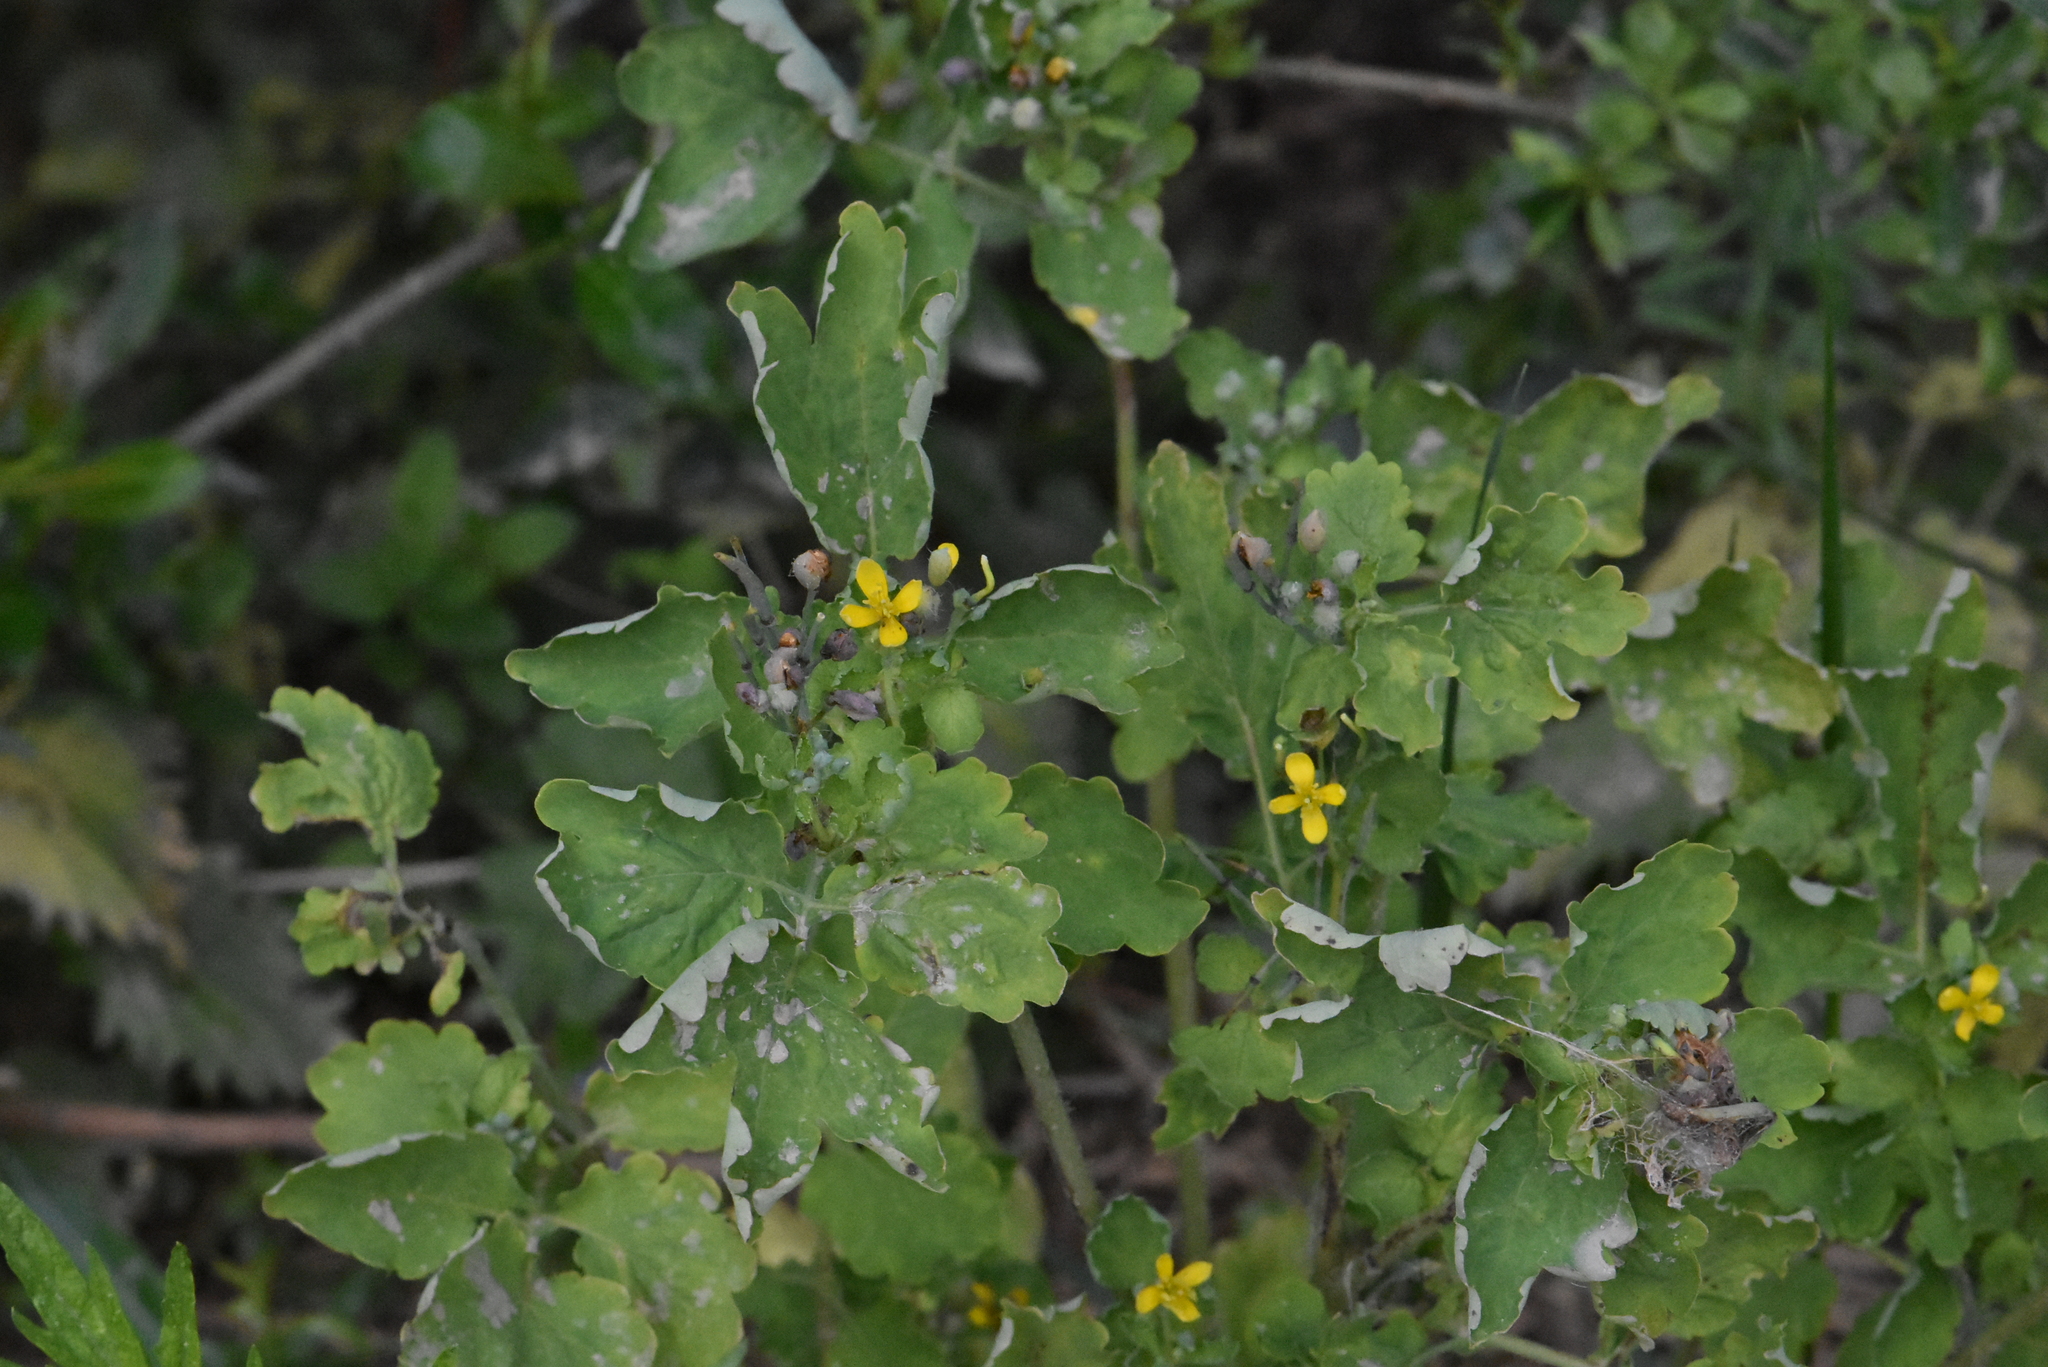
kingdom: Plantae
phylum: Tracheophyta
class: Magnoliopsida
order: Ranunculales
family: Papaveraceae
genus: Chelidonium
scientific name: Chelidonium majus
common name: Greater celandine
